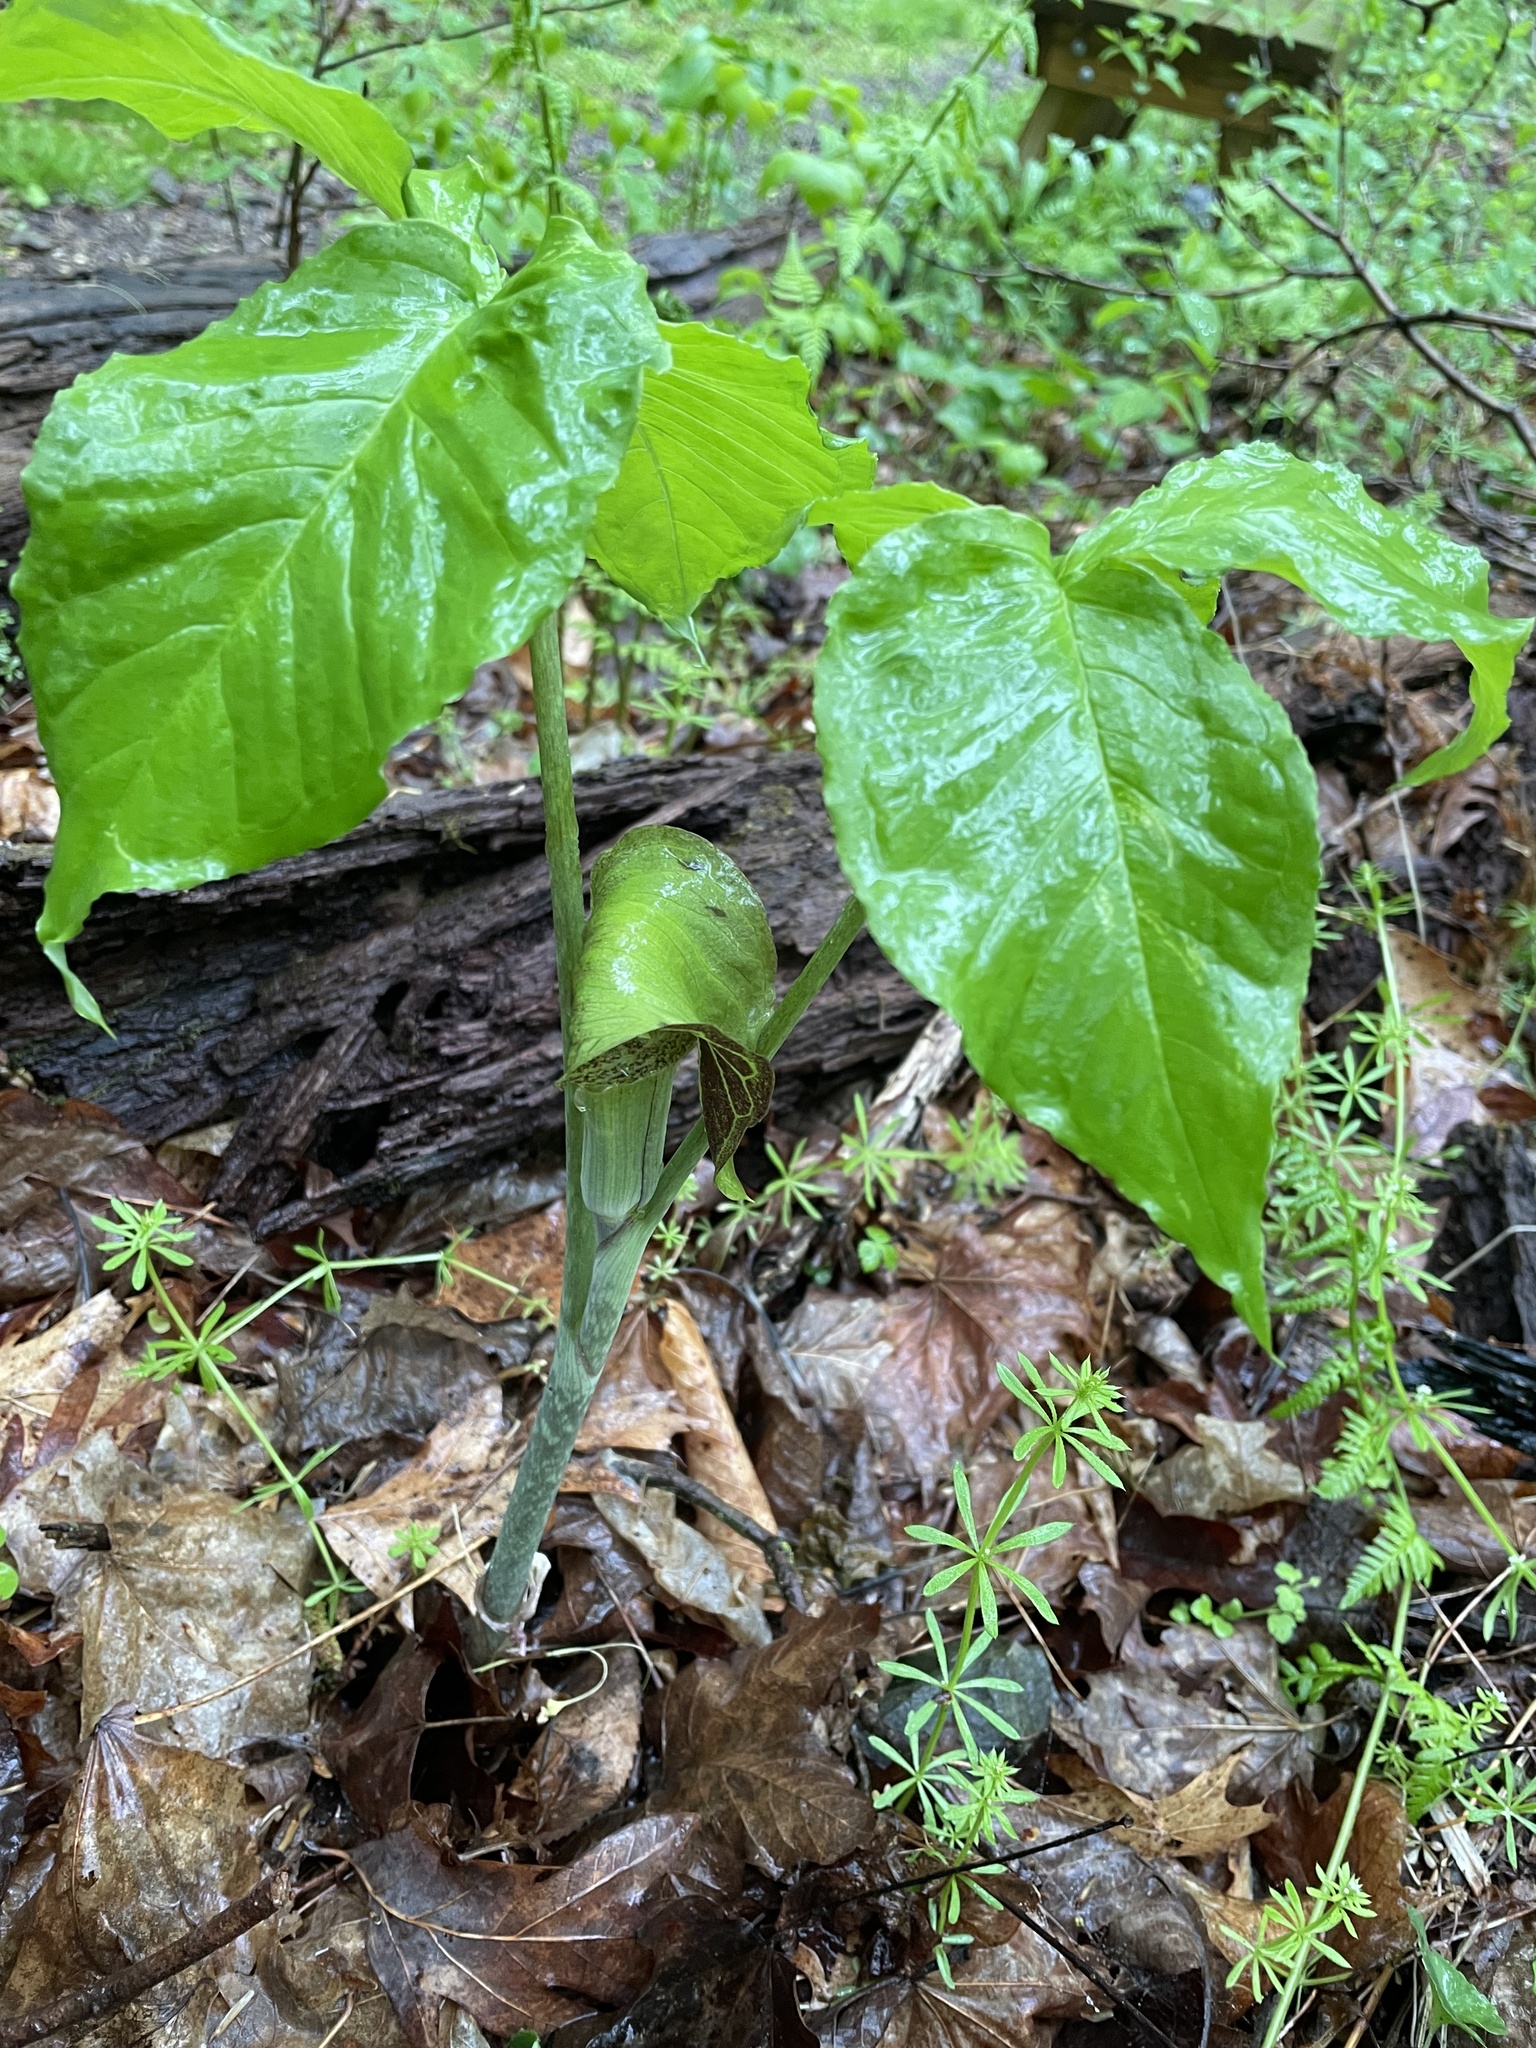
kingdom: Plantae
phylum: Tracheophyta
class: Liliopsida
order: Alismatales
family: Araceae
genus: Arisaema
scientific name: Arisaema triphyllum
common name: Jack-in-the-pulpit
